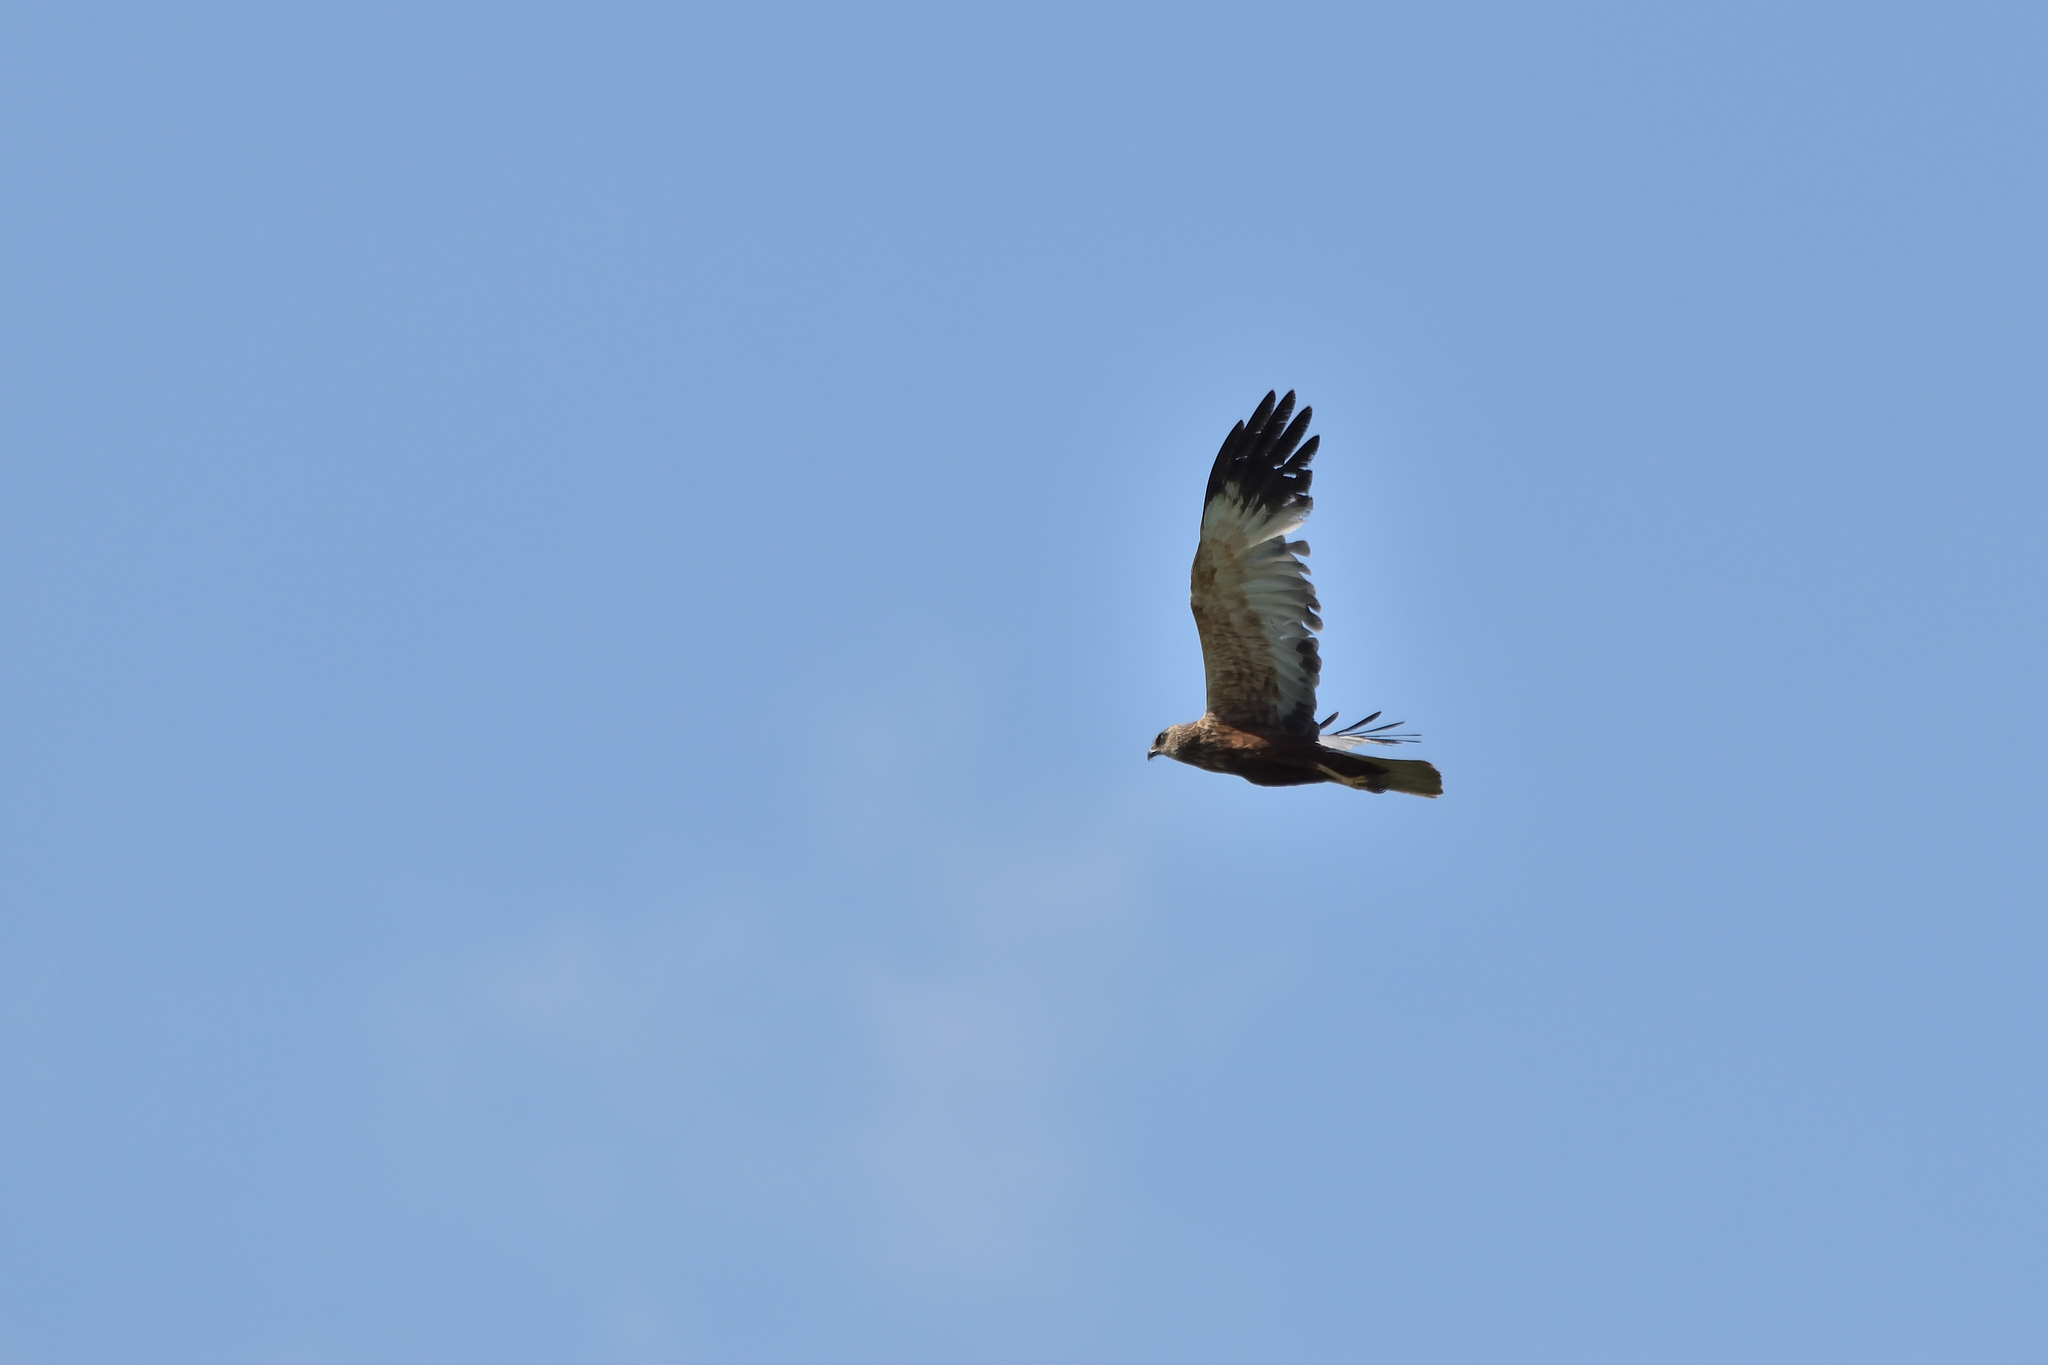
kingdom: Animalia
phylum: Chordata
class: Aves
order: Accipitriformes
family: Accipitridae
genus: Circus
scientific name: Circus aeruginosus
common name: Western marsh harrier
